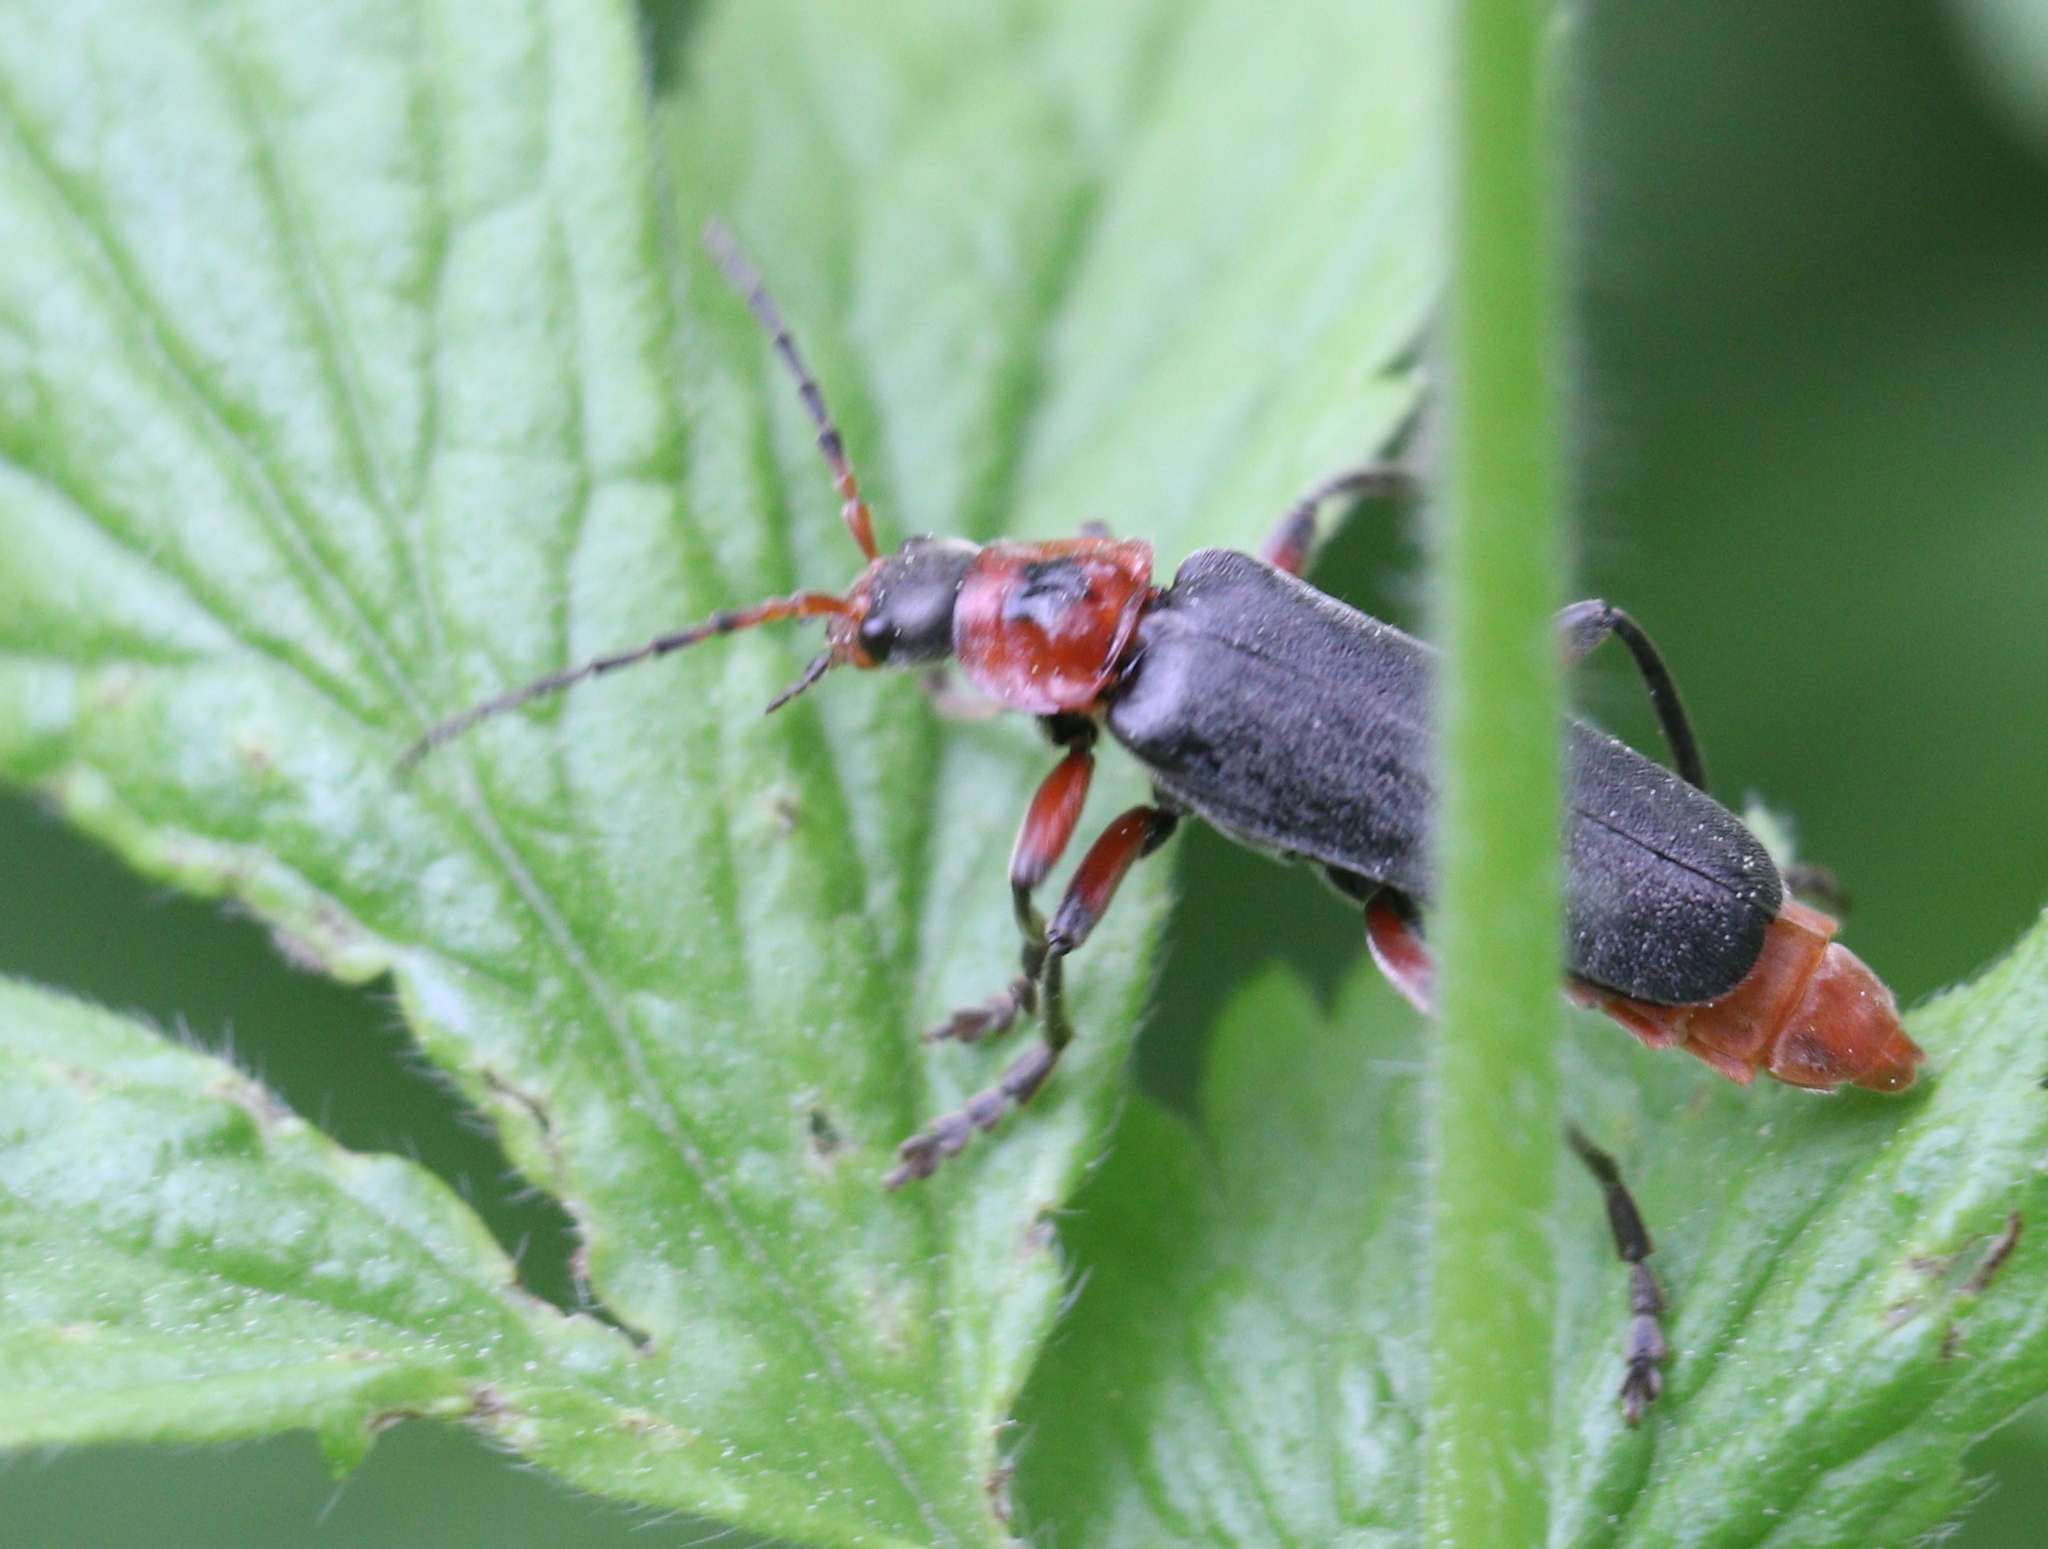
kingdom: Animalia
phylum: Arthropoda
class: Insecta
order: Coleoptera
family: Cantharidae
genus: Cantharis
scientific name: Cantharis rustica
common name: Soldier beetle
